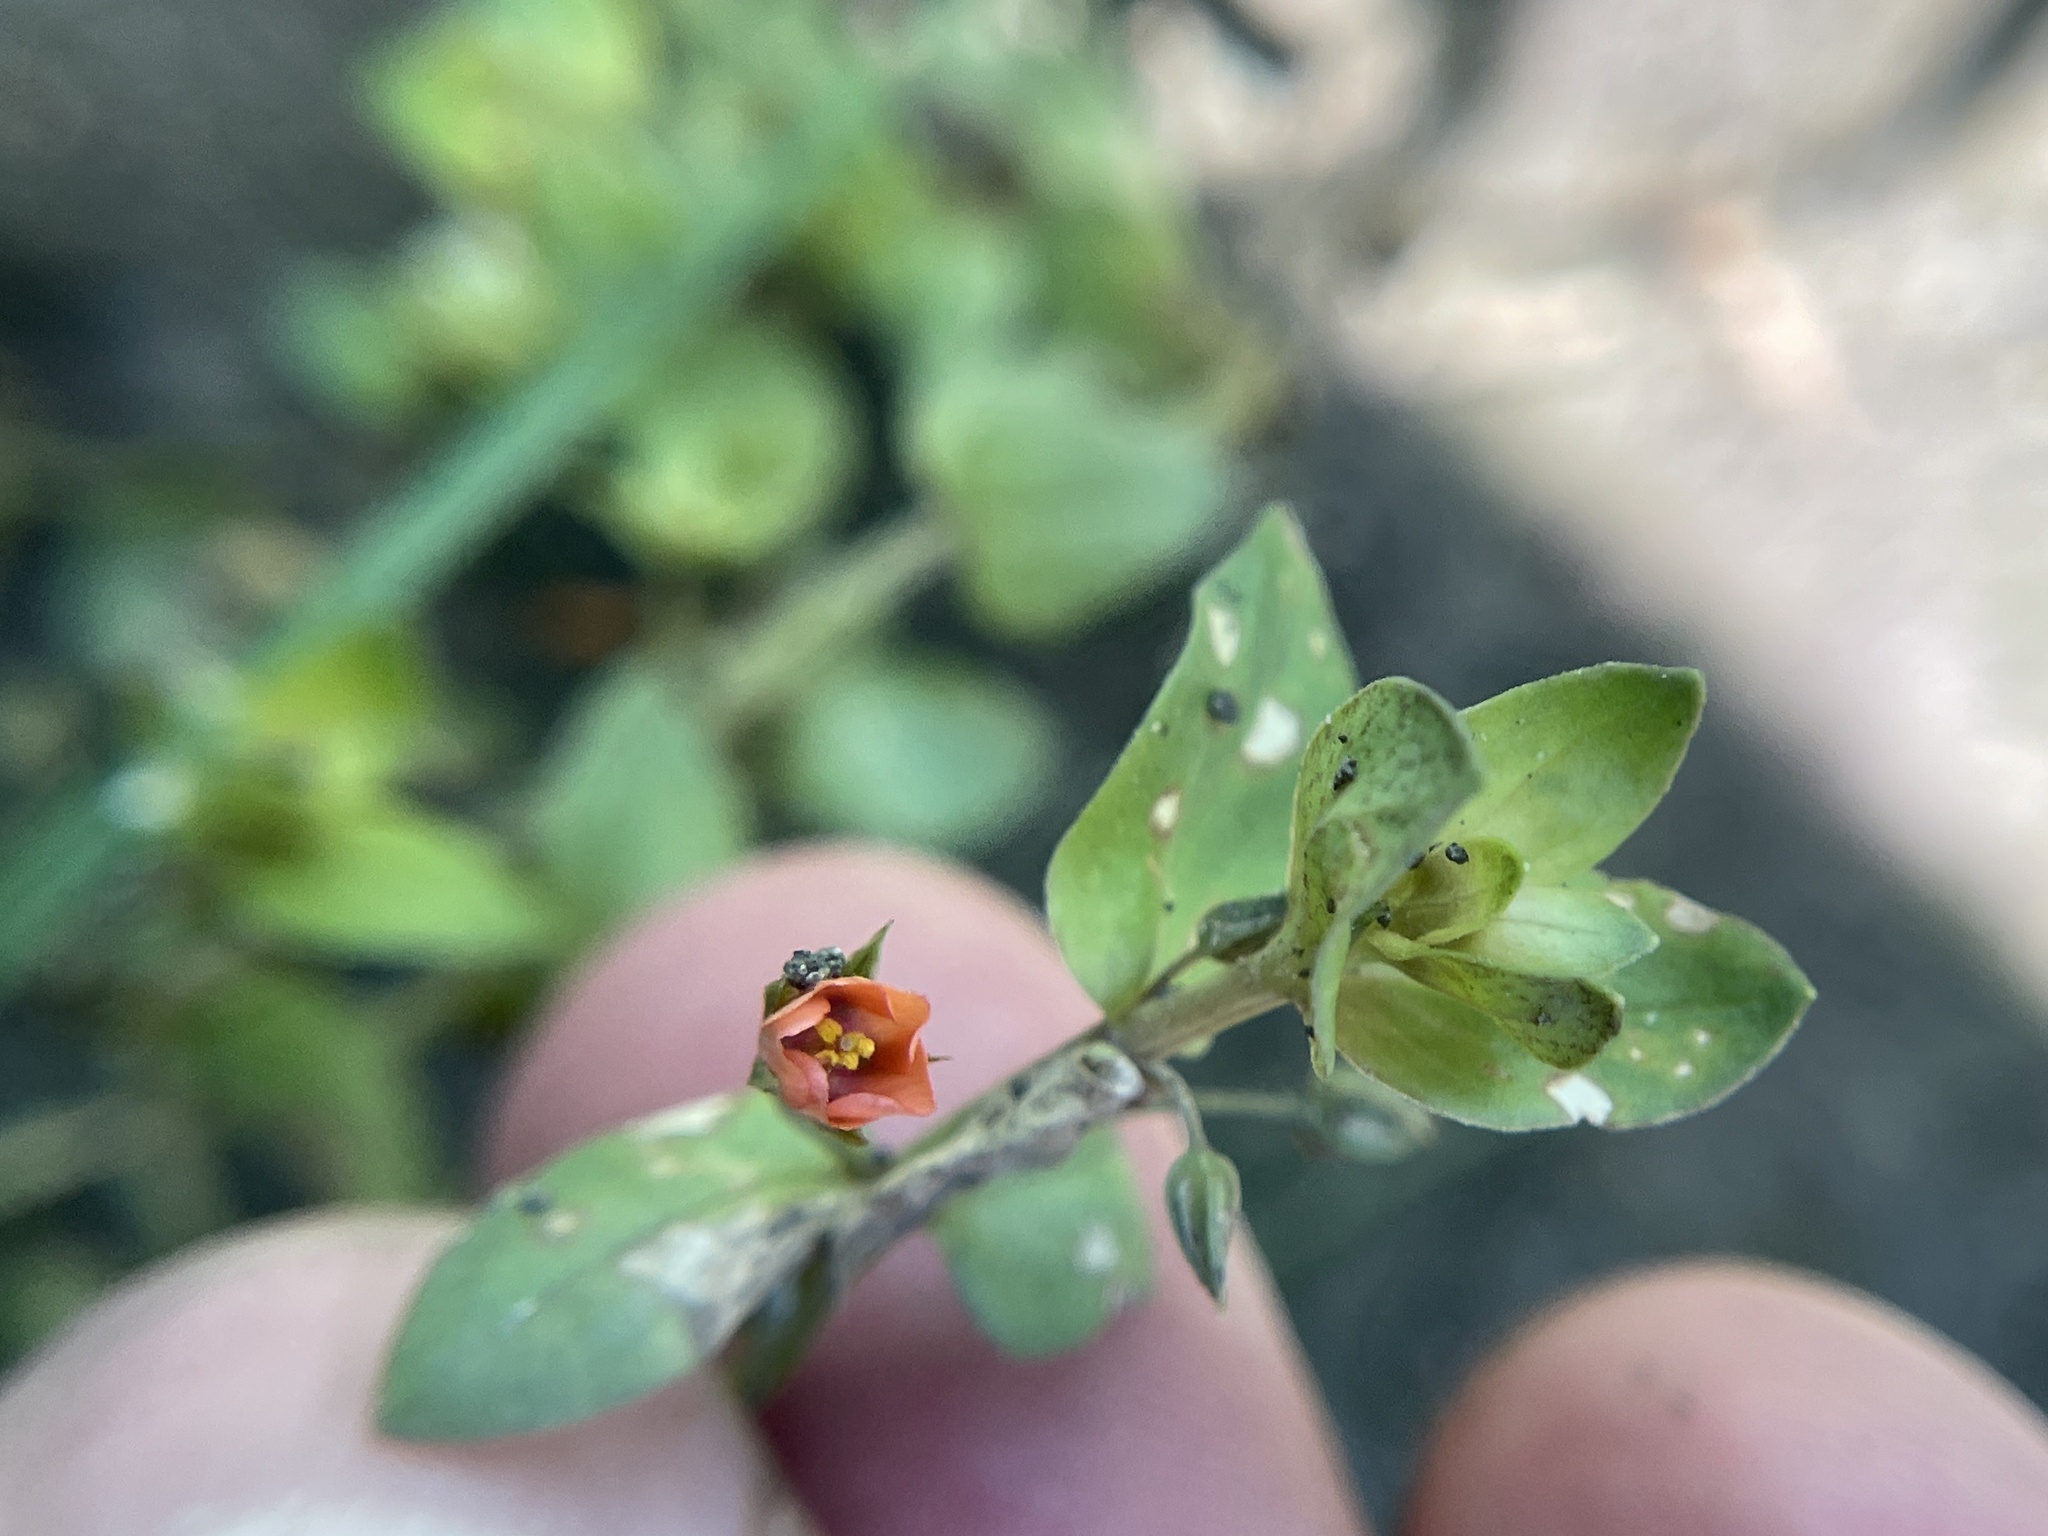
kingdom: Plantae
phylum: Tracheophyta
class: Magnoliopsida
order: Ericales
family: Primulaceae
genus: Lysimachia
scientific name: Lysimachia arvensis
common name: Scarlet pimpernel
